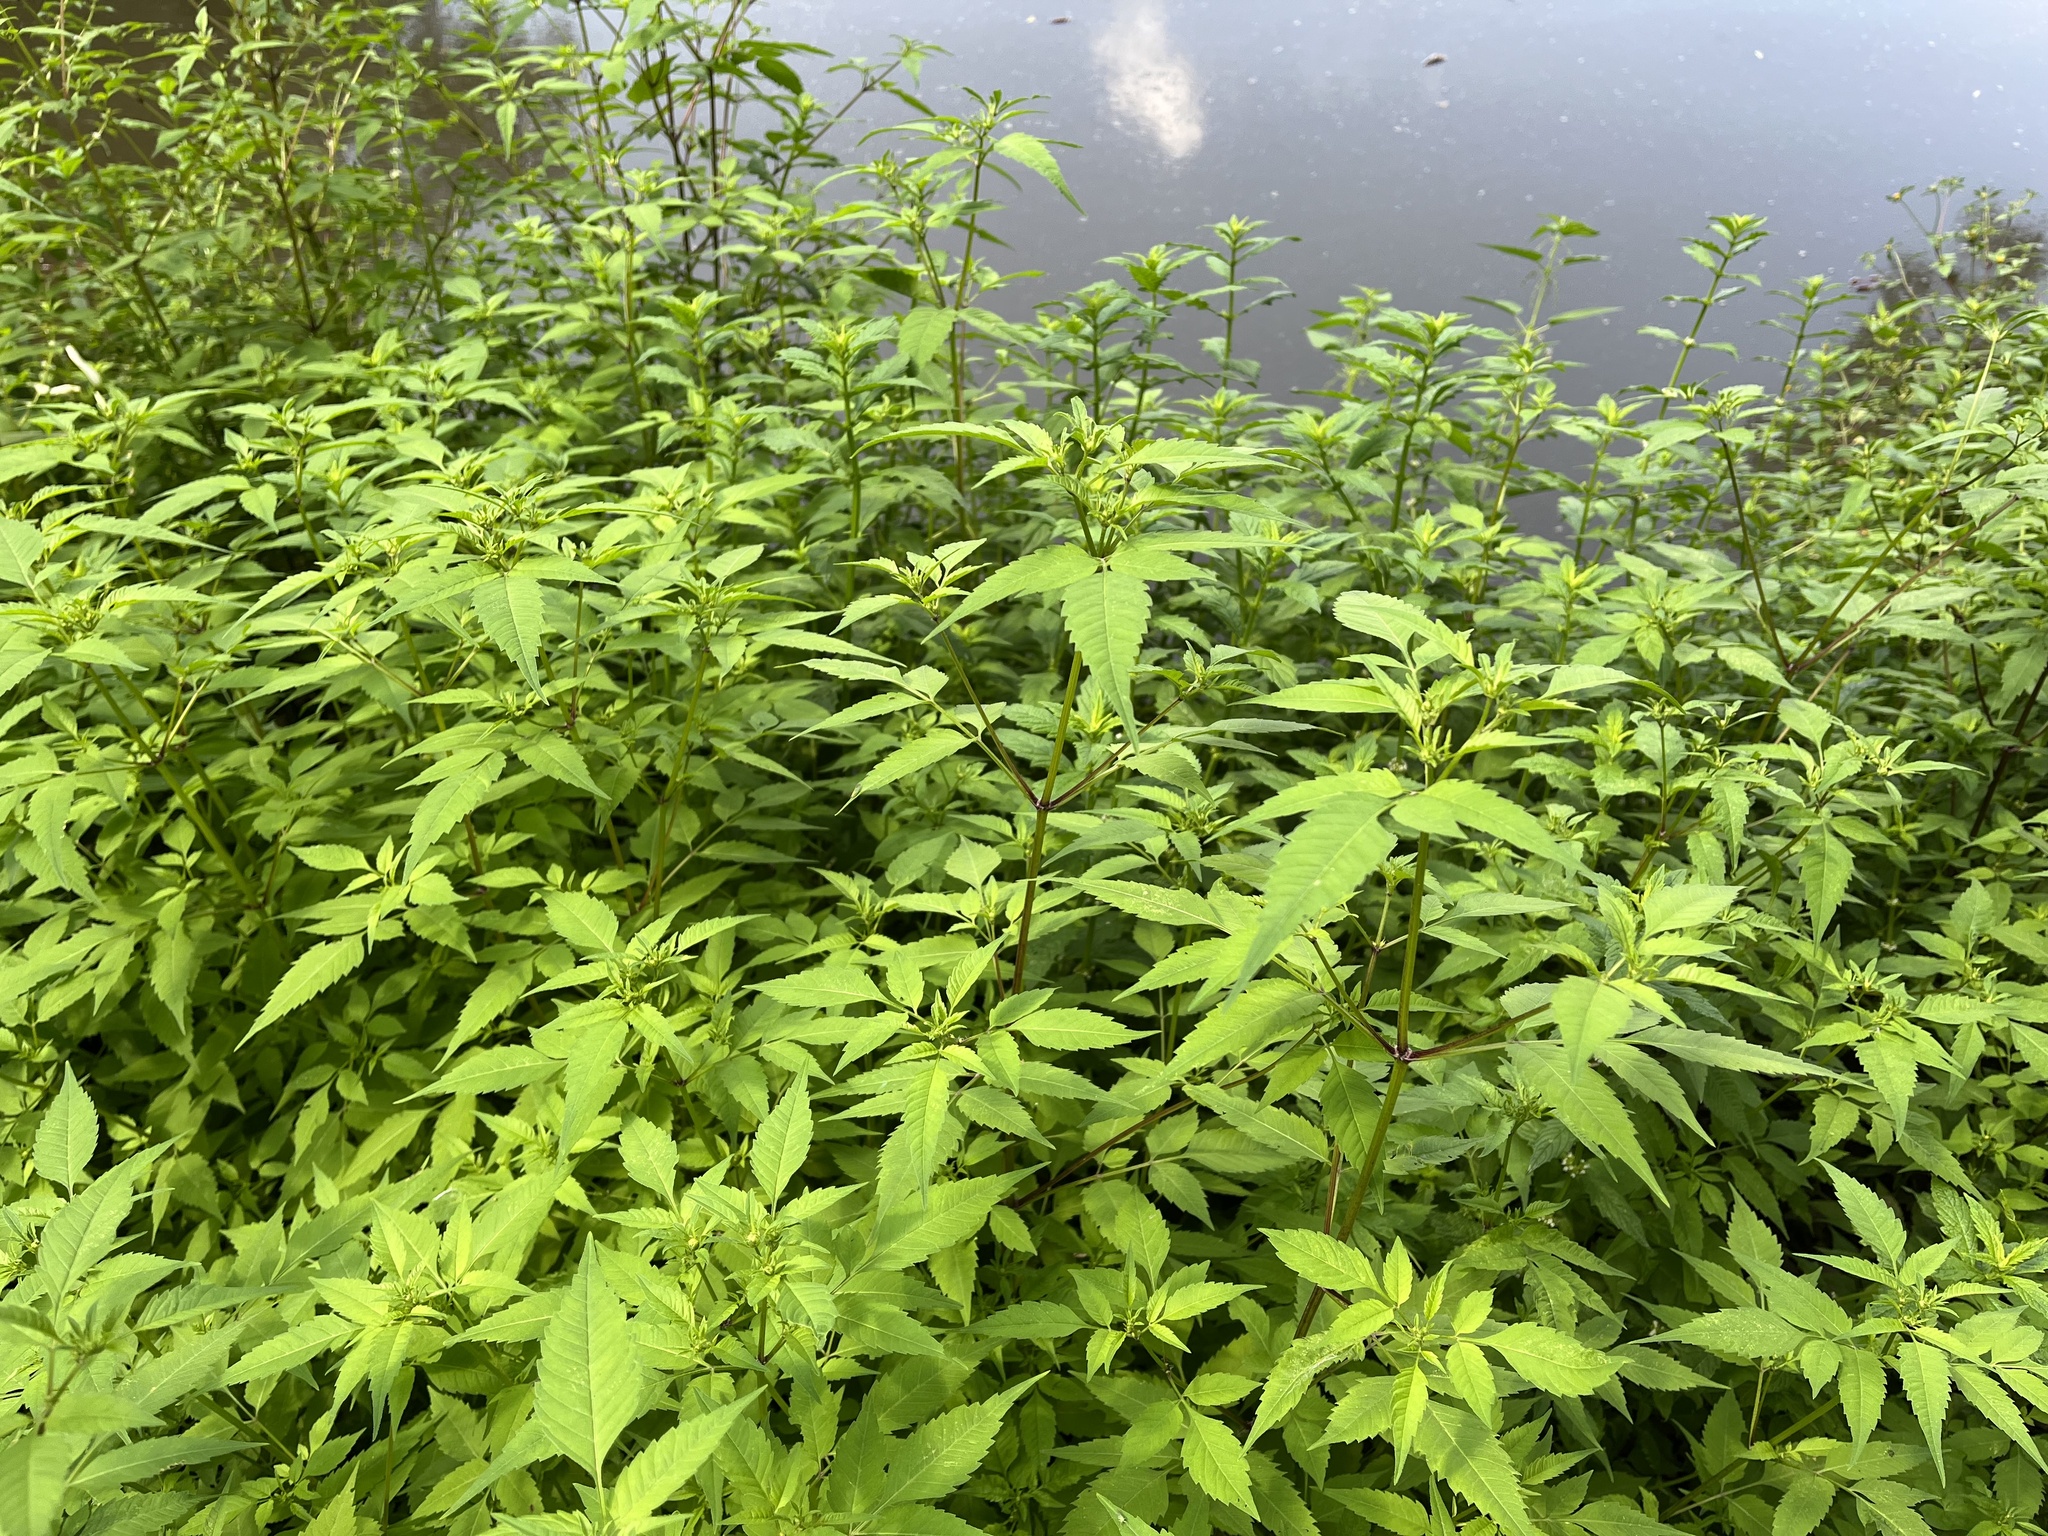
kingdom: Plantae
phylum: Tracheophyta
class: Magnoliopsida
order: Asterales
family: Asteraceae
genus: Bidens
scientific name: Bidens frondosa
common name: Beggarticks
